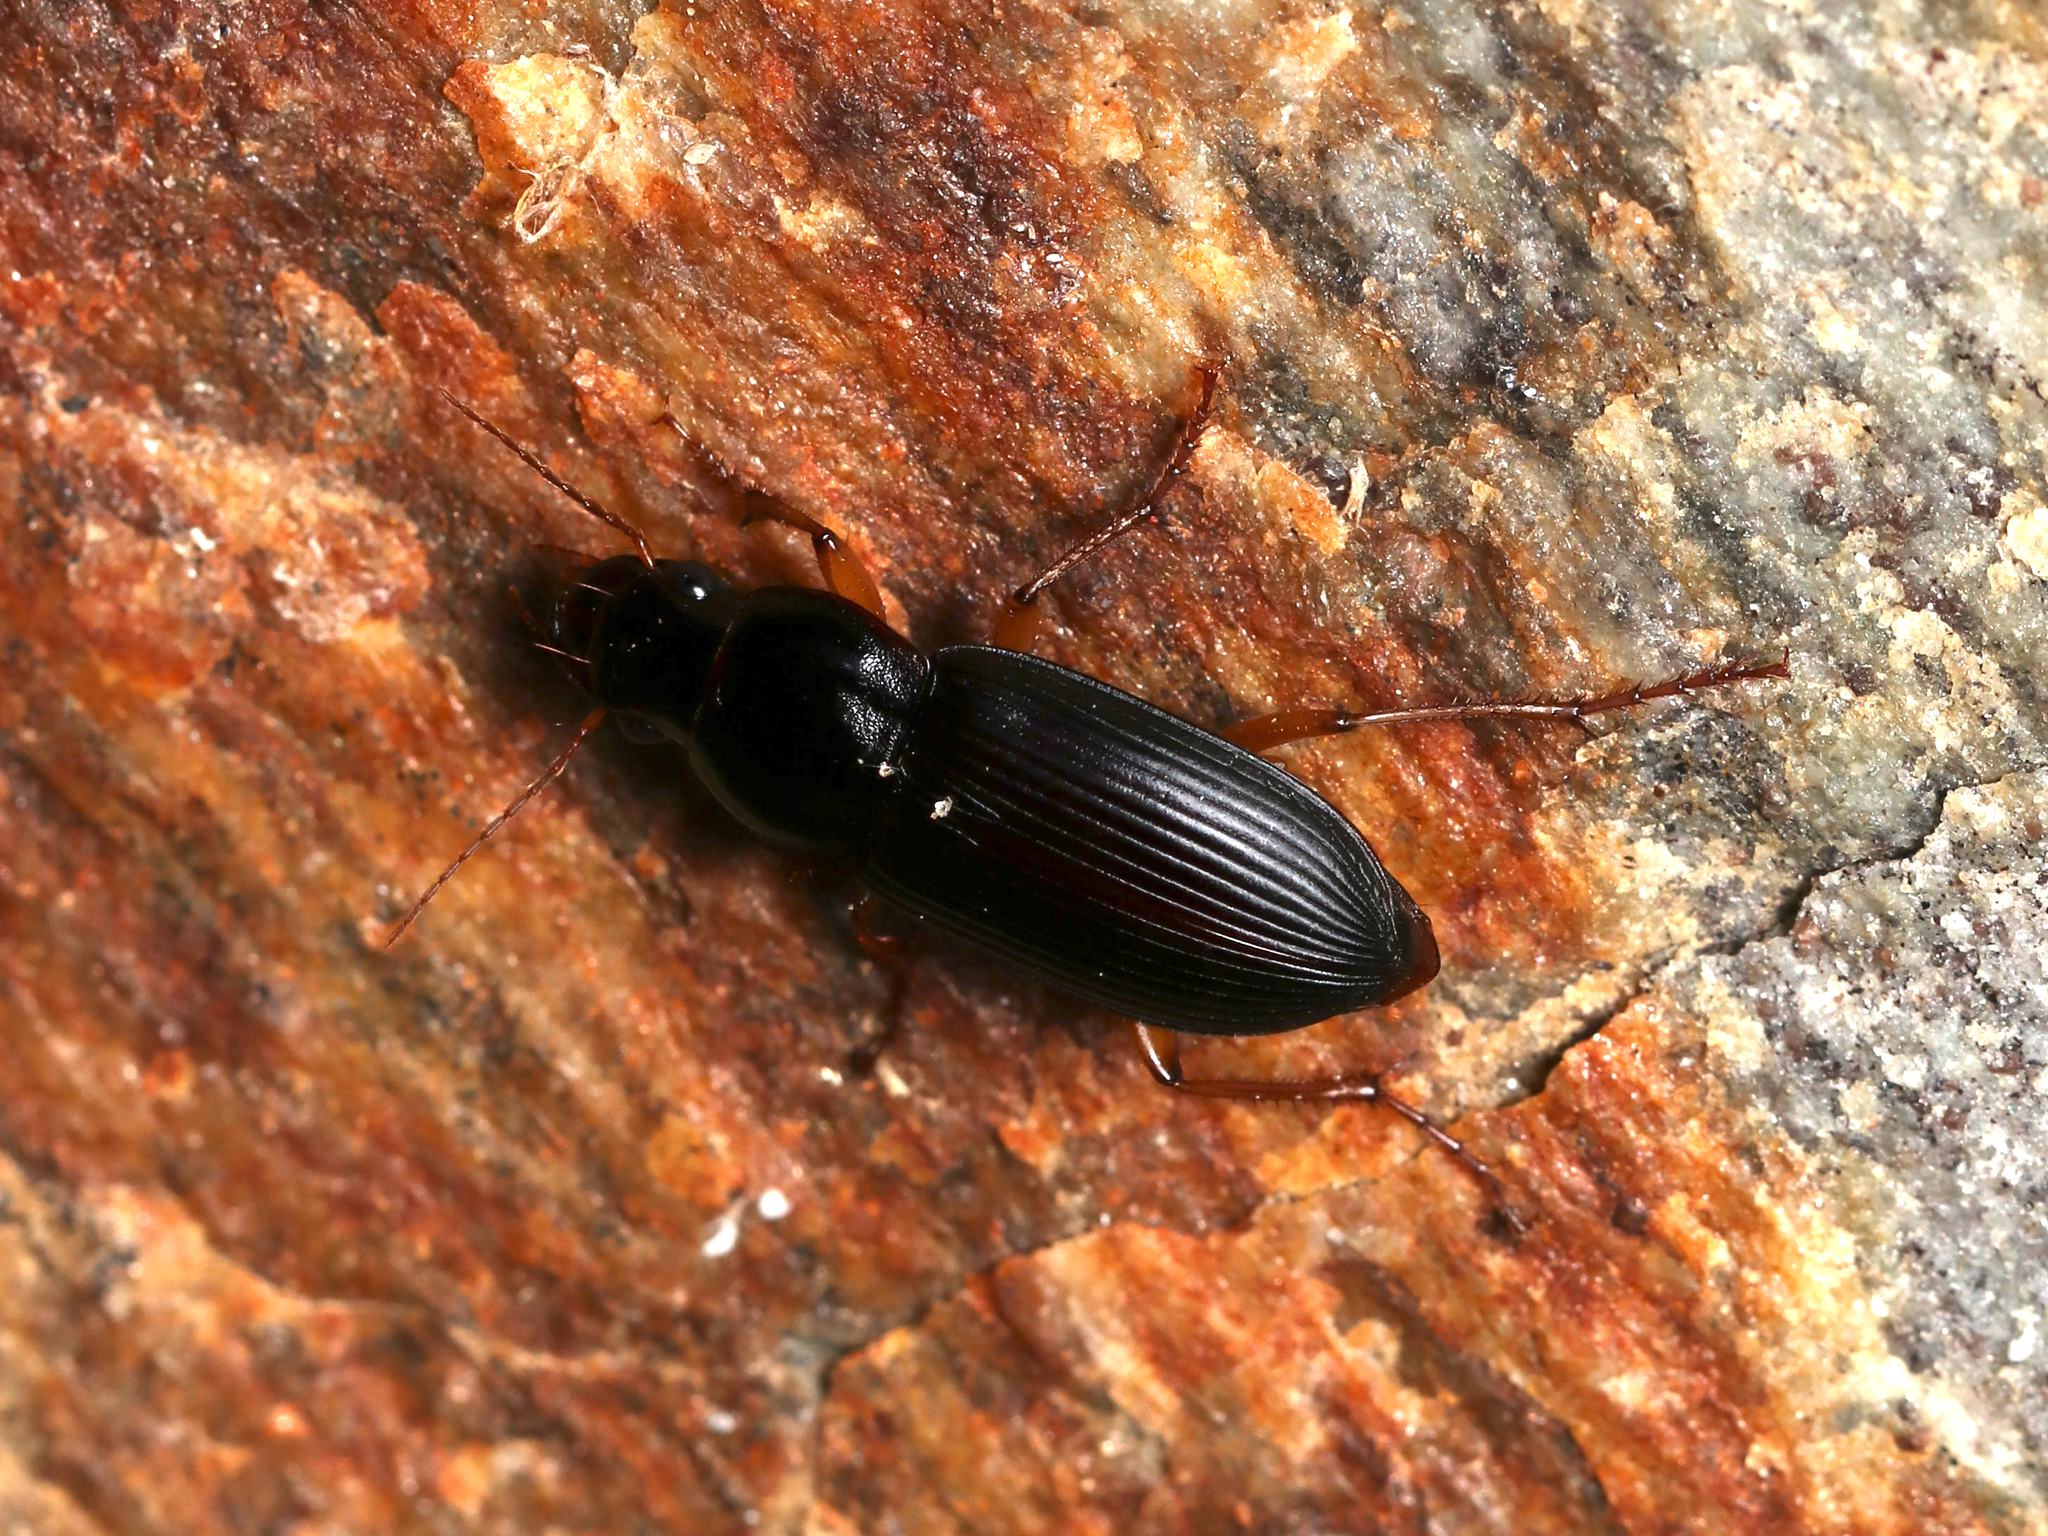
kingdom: Animalia
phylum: Arthropoda
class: Insecta
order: Coleoptera
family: Carabidae
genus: Harpalus
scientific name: Harpalus pensylvanicus
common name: Pennsylvania dingy ground beetle
